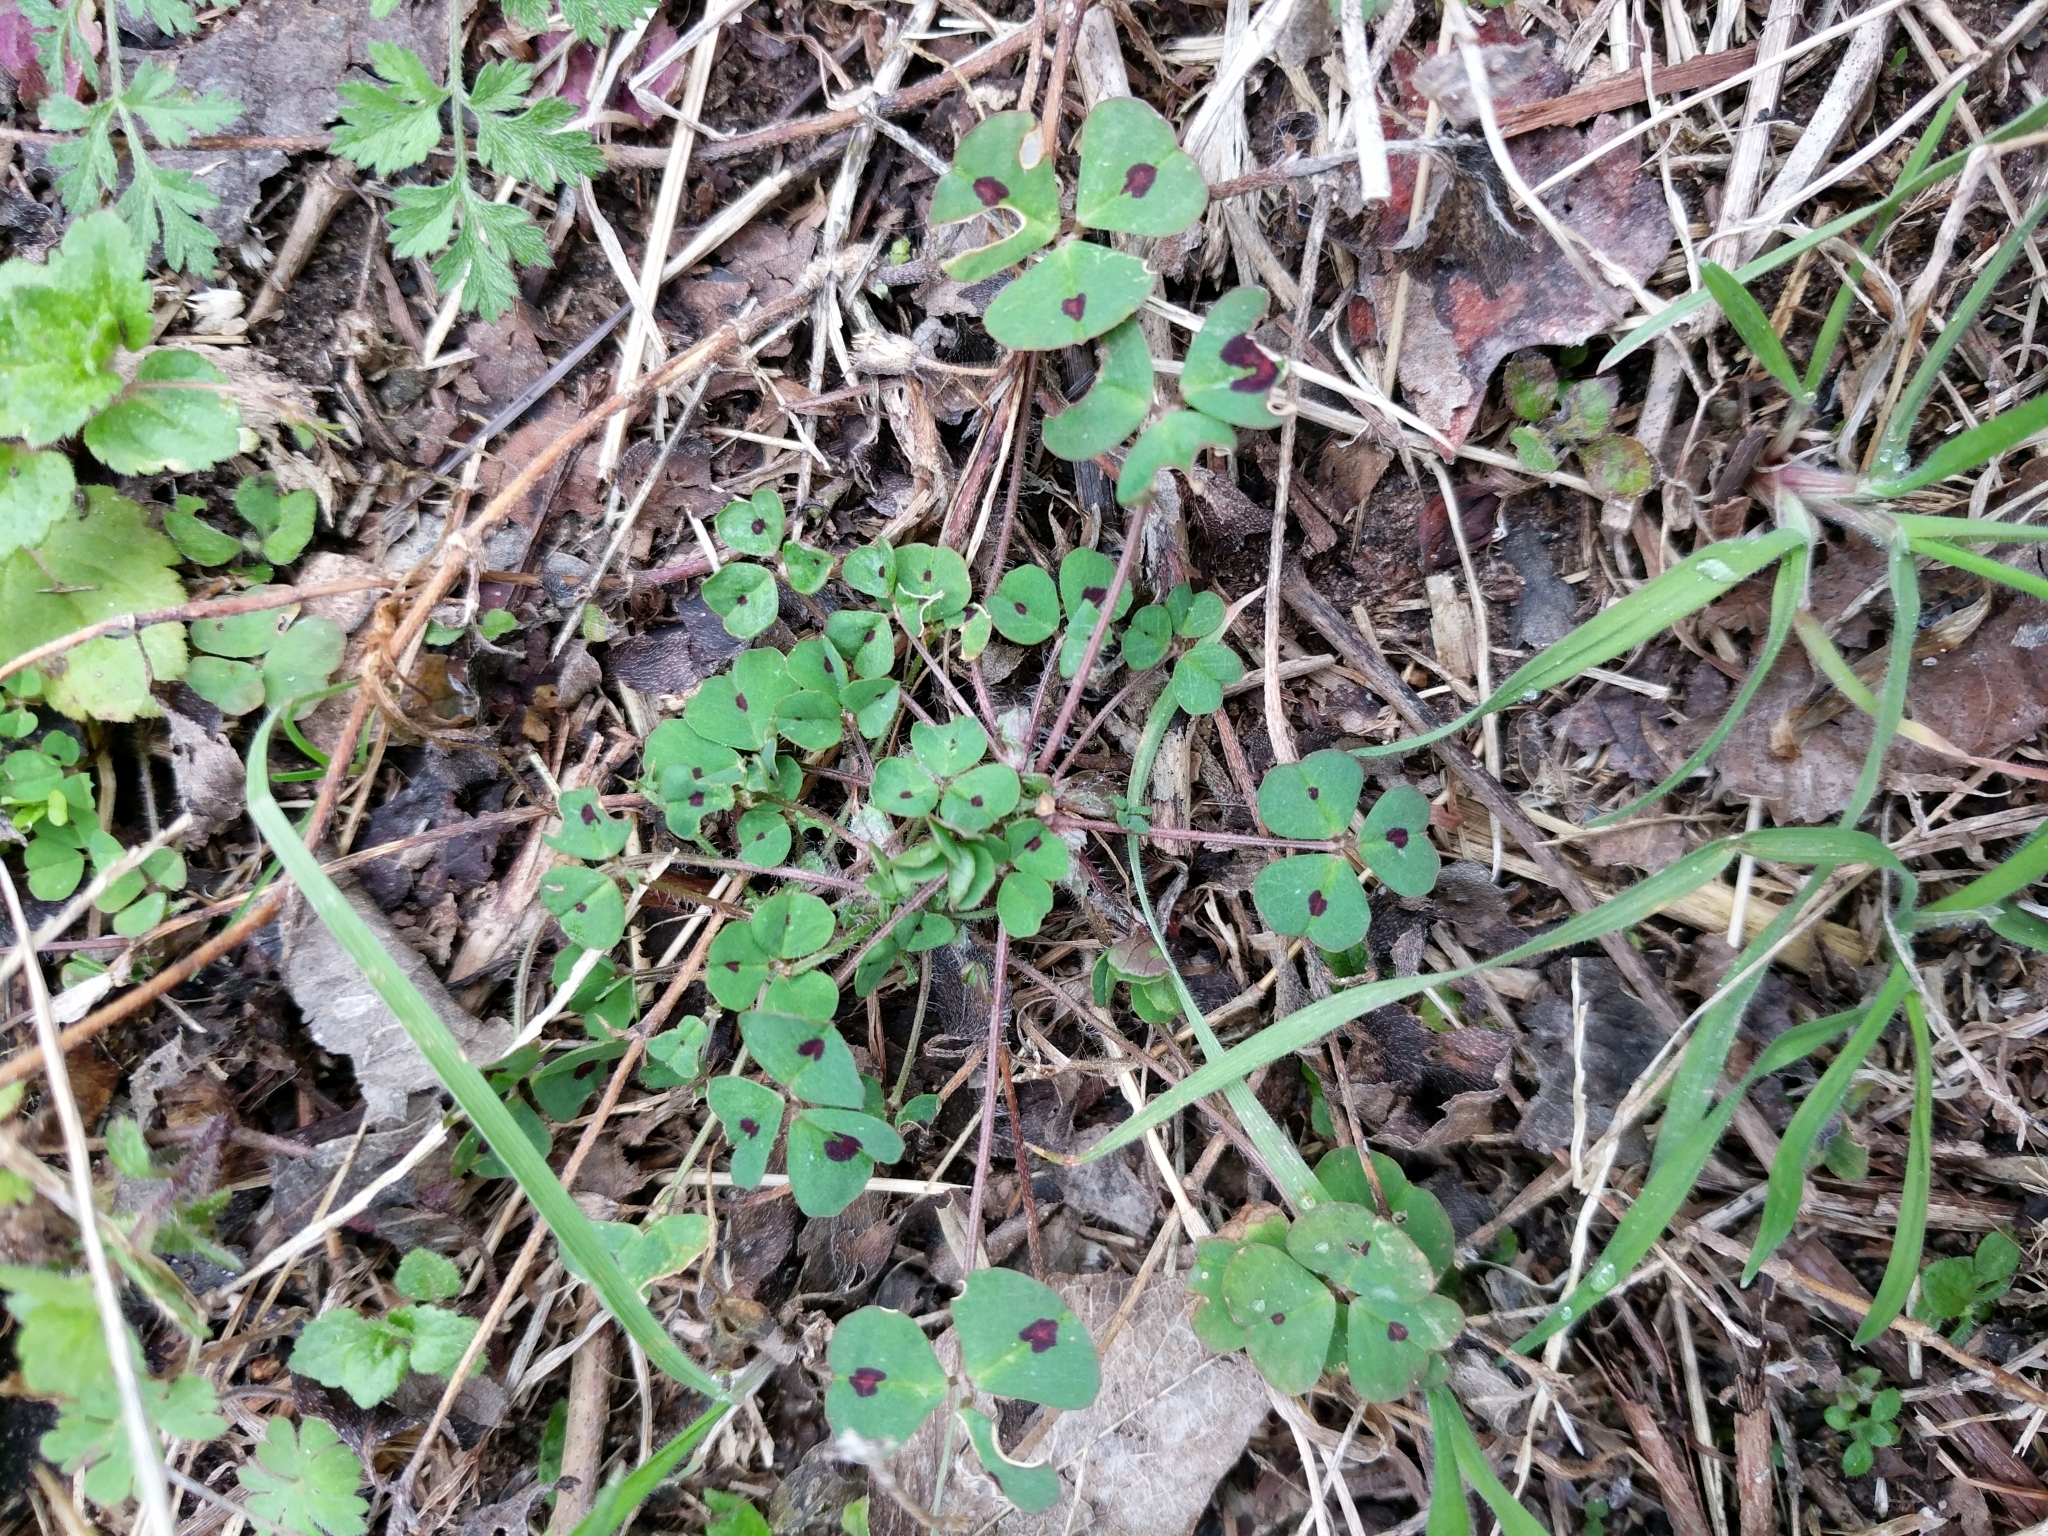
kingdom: Plantae
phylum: Tracheophyta
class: Magnoliopsida
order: Fabales
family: Fabaceae
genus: Medicago
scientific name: Medicago arabica
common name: Spotted medick
